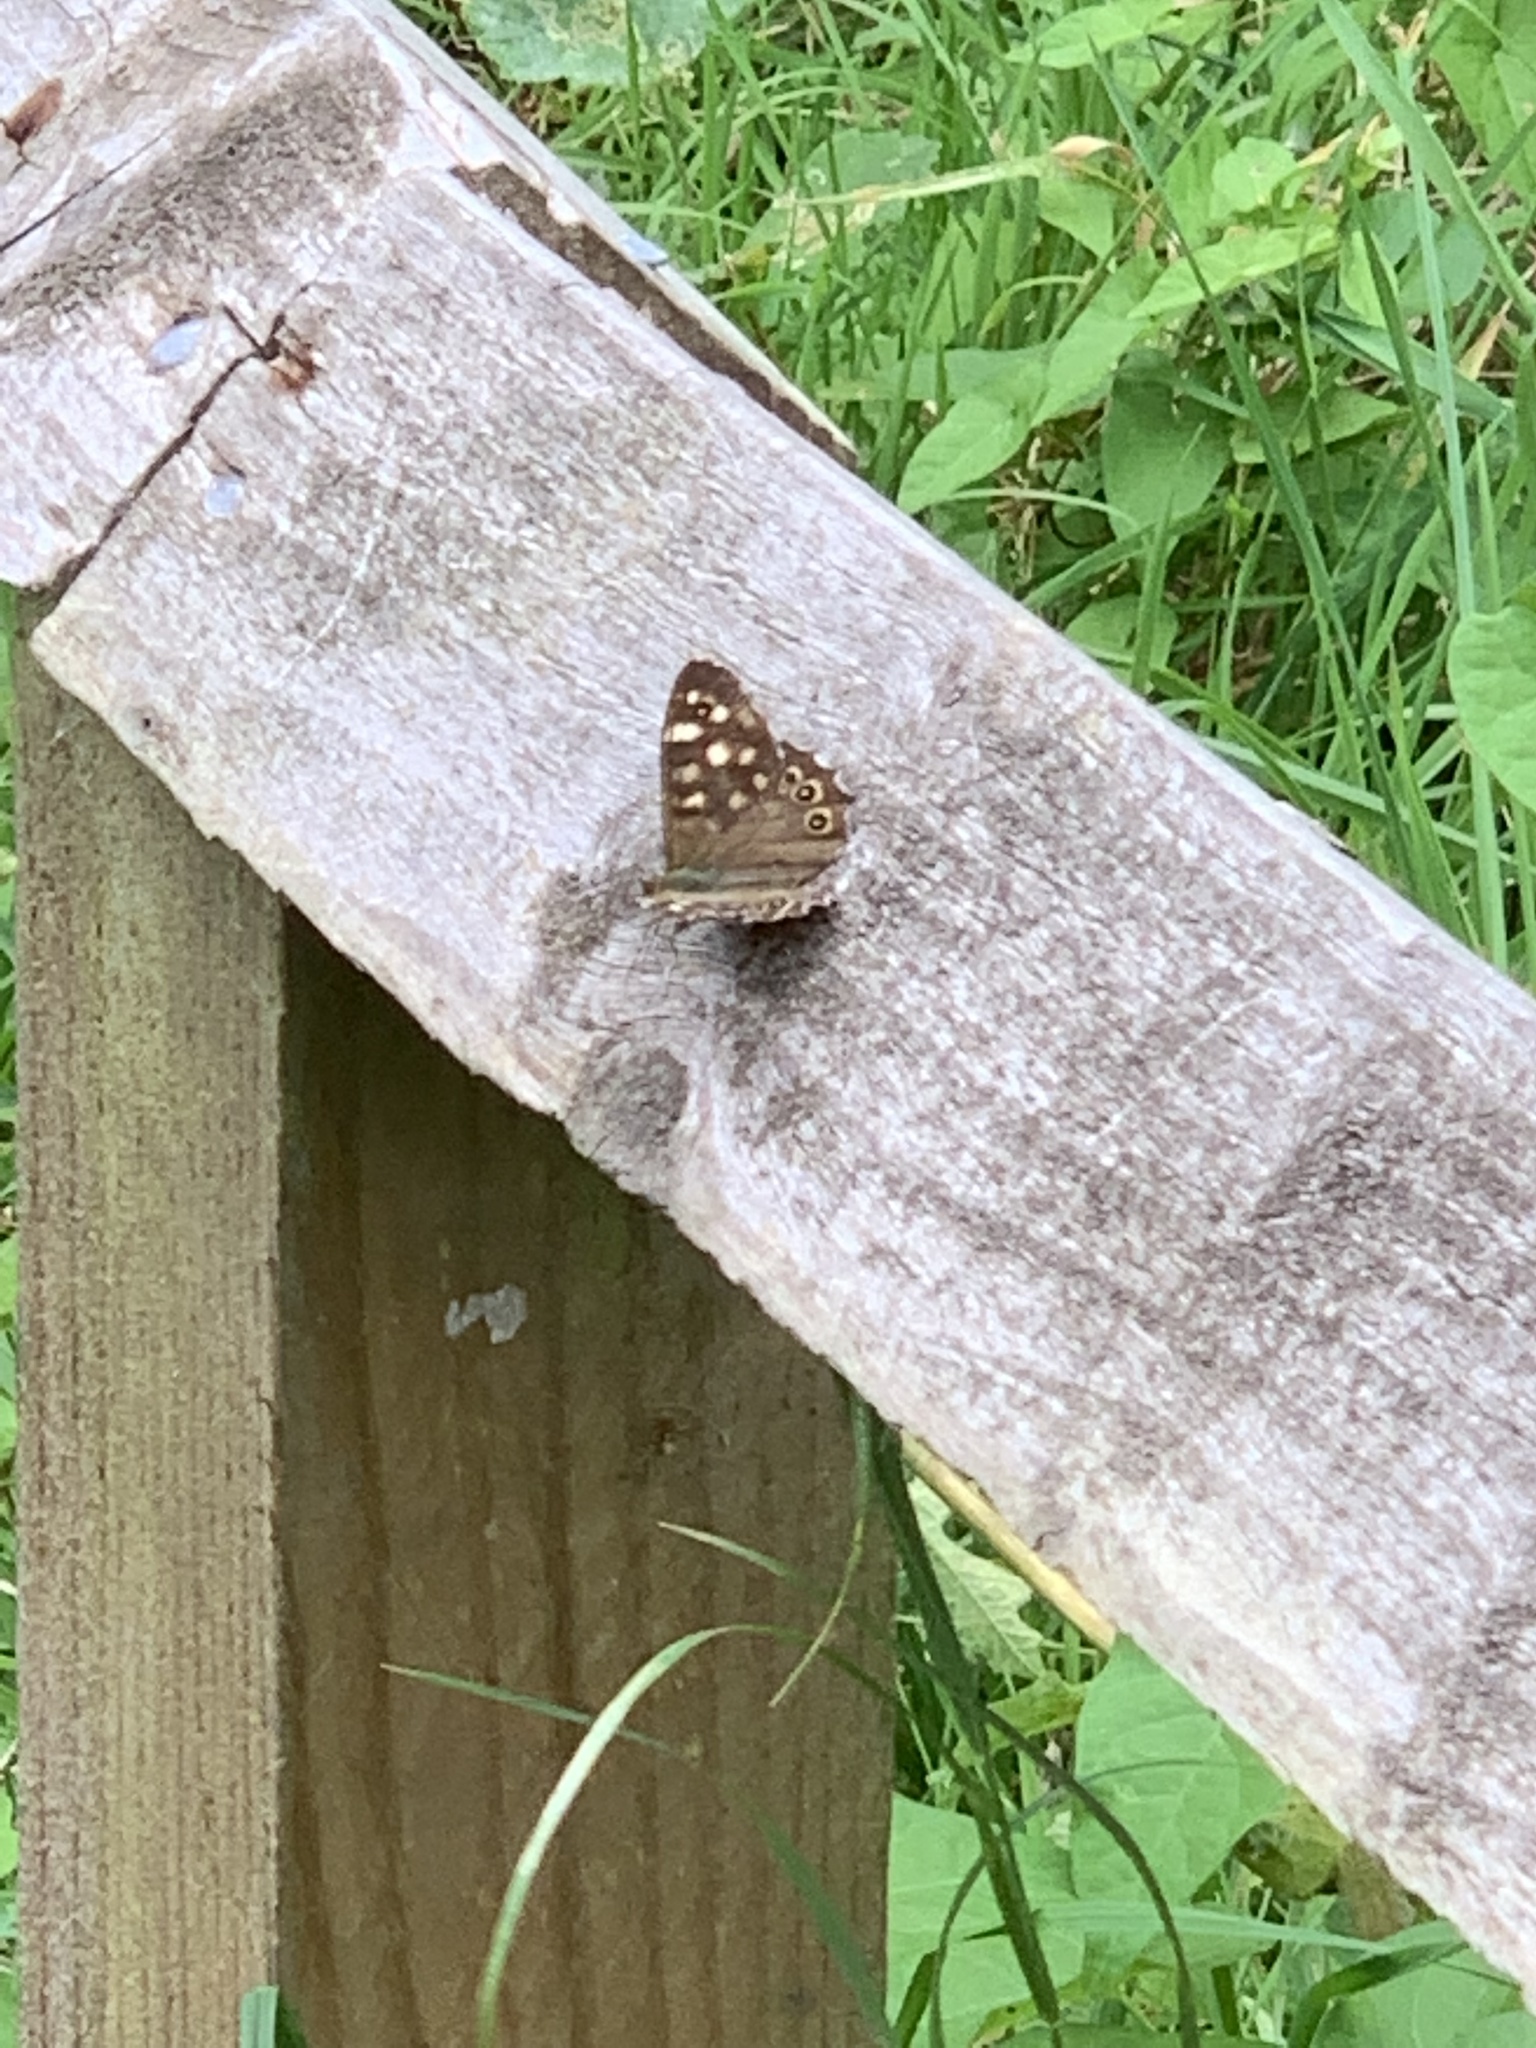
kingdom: Animalia
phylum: Arthropoda
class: Insecta
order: Lepidoptera
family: Nymphalidae
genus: Pararge
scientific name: Pararge aegeria
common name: Speckled wood
